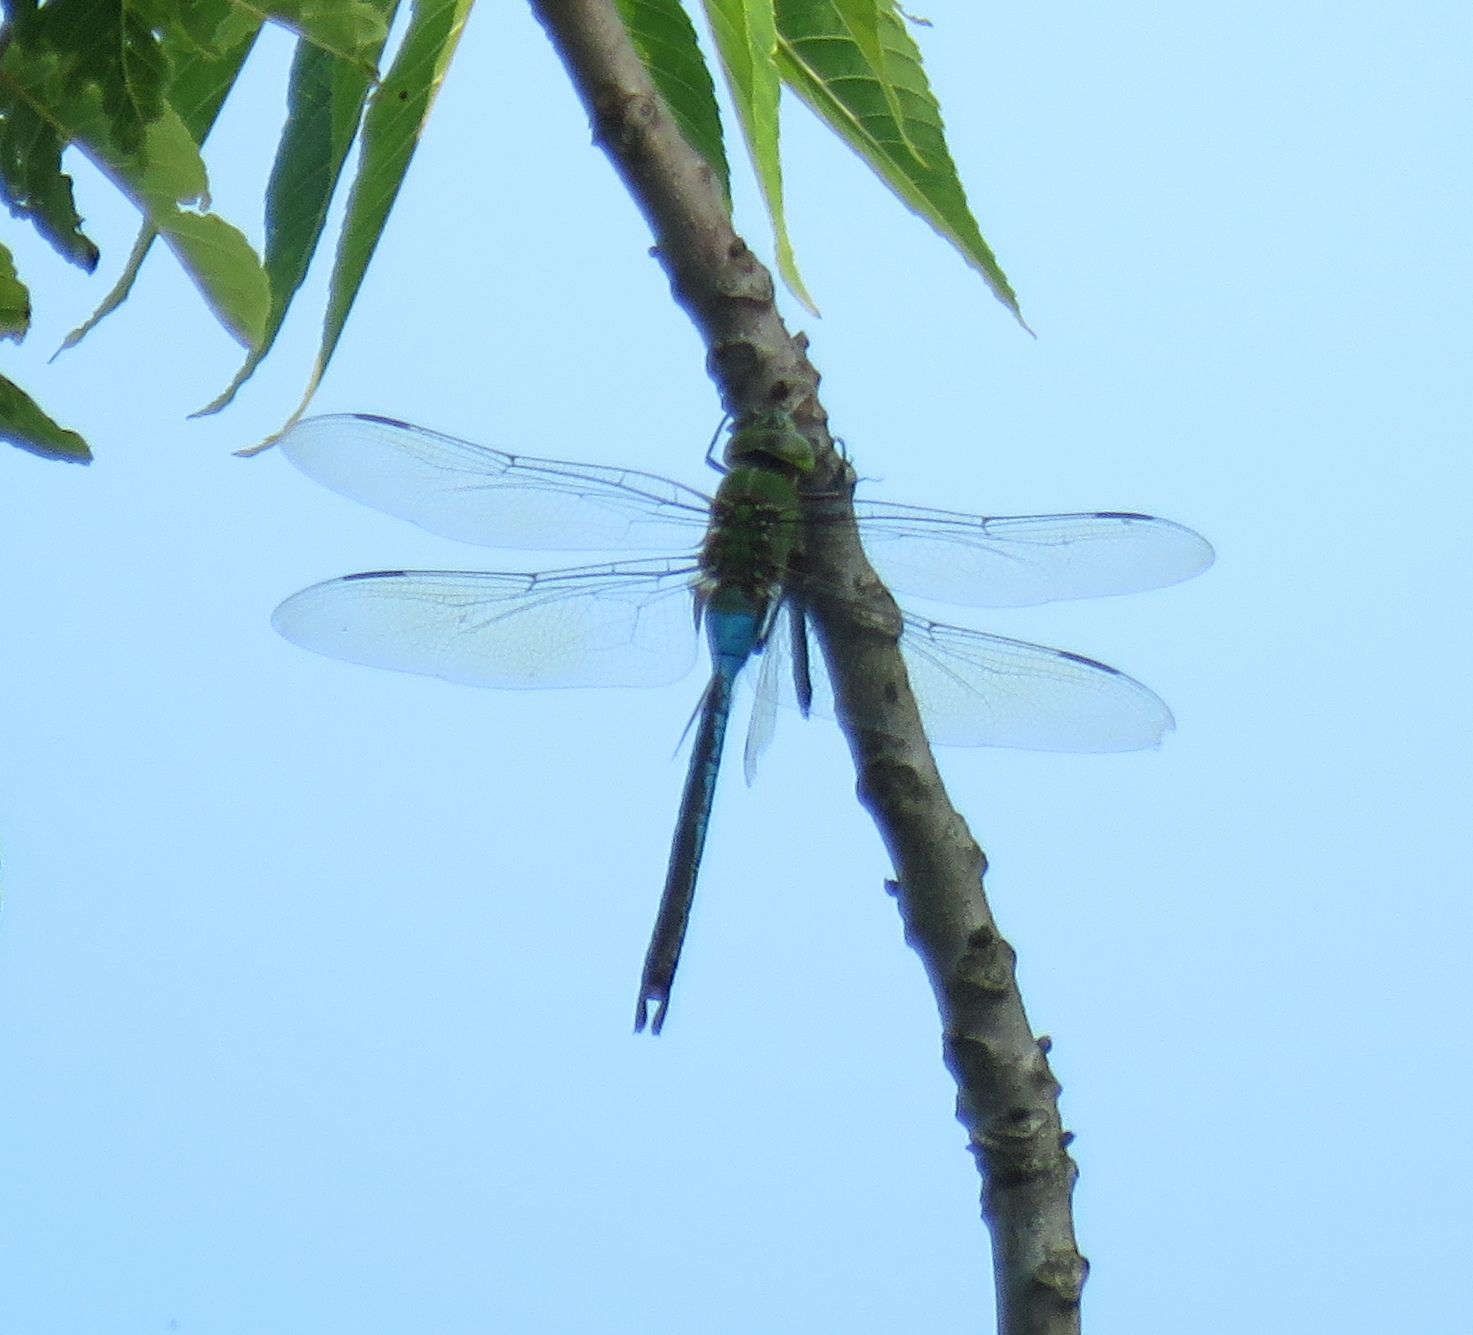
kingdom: Animalia
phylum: Arthropoda
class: Insecta
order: Odonata
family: Aeshnidae
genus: Anax
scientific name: Anax junius
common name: Common green darner
